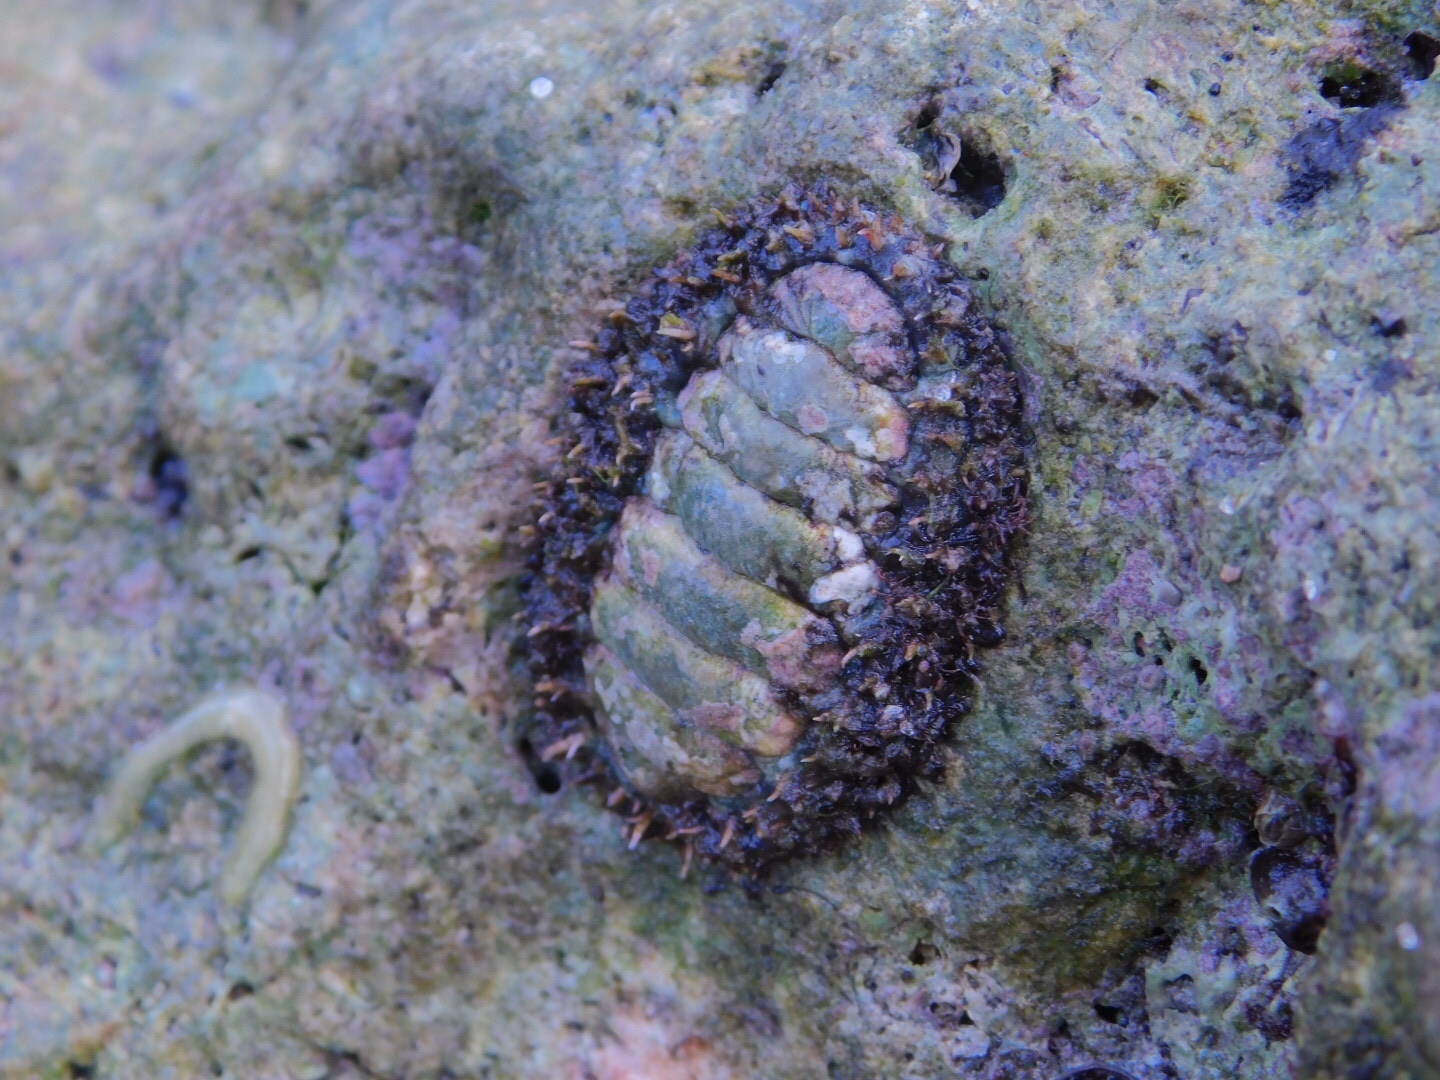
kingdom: Animalia
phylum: Mollusca
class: Polyplacophora
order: Chitonida
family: Tonicellidae
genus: Ceratozona
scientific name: Ceratozona squalida
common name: Rough-girdled chiton
